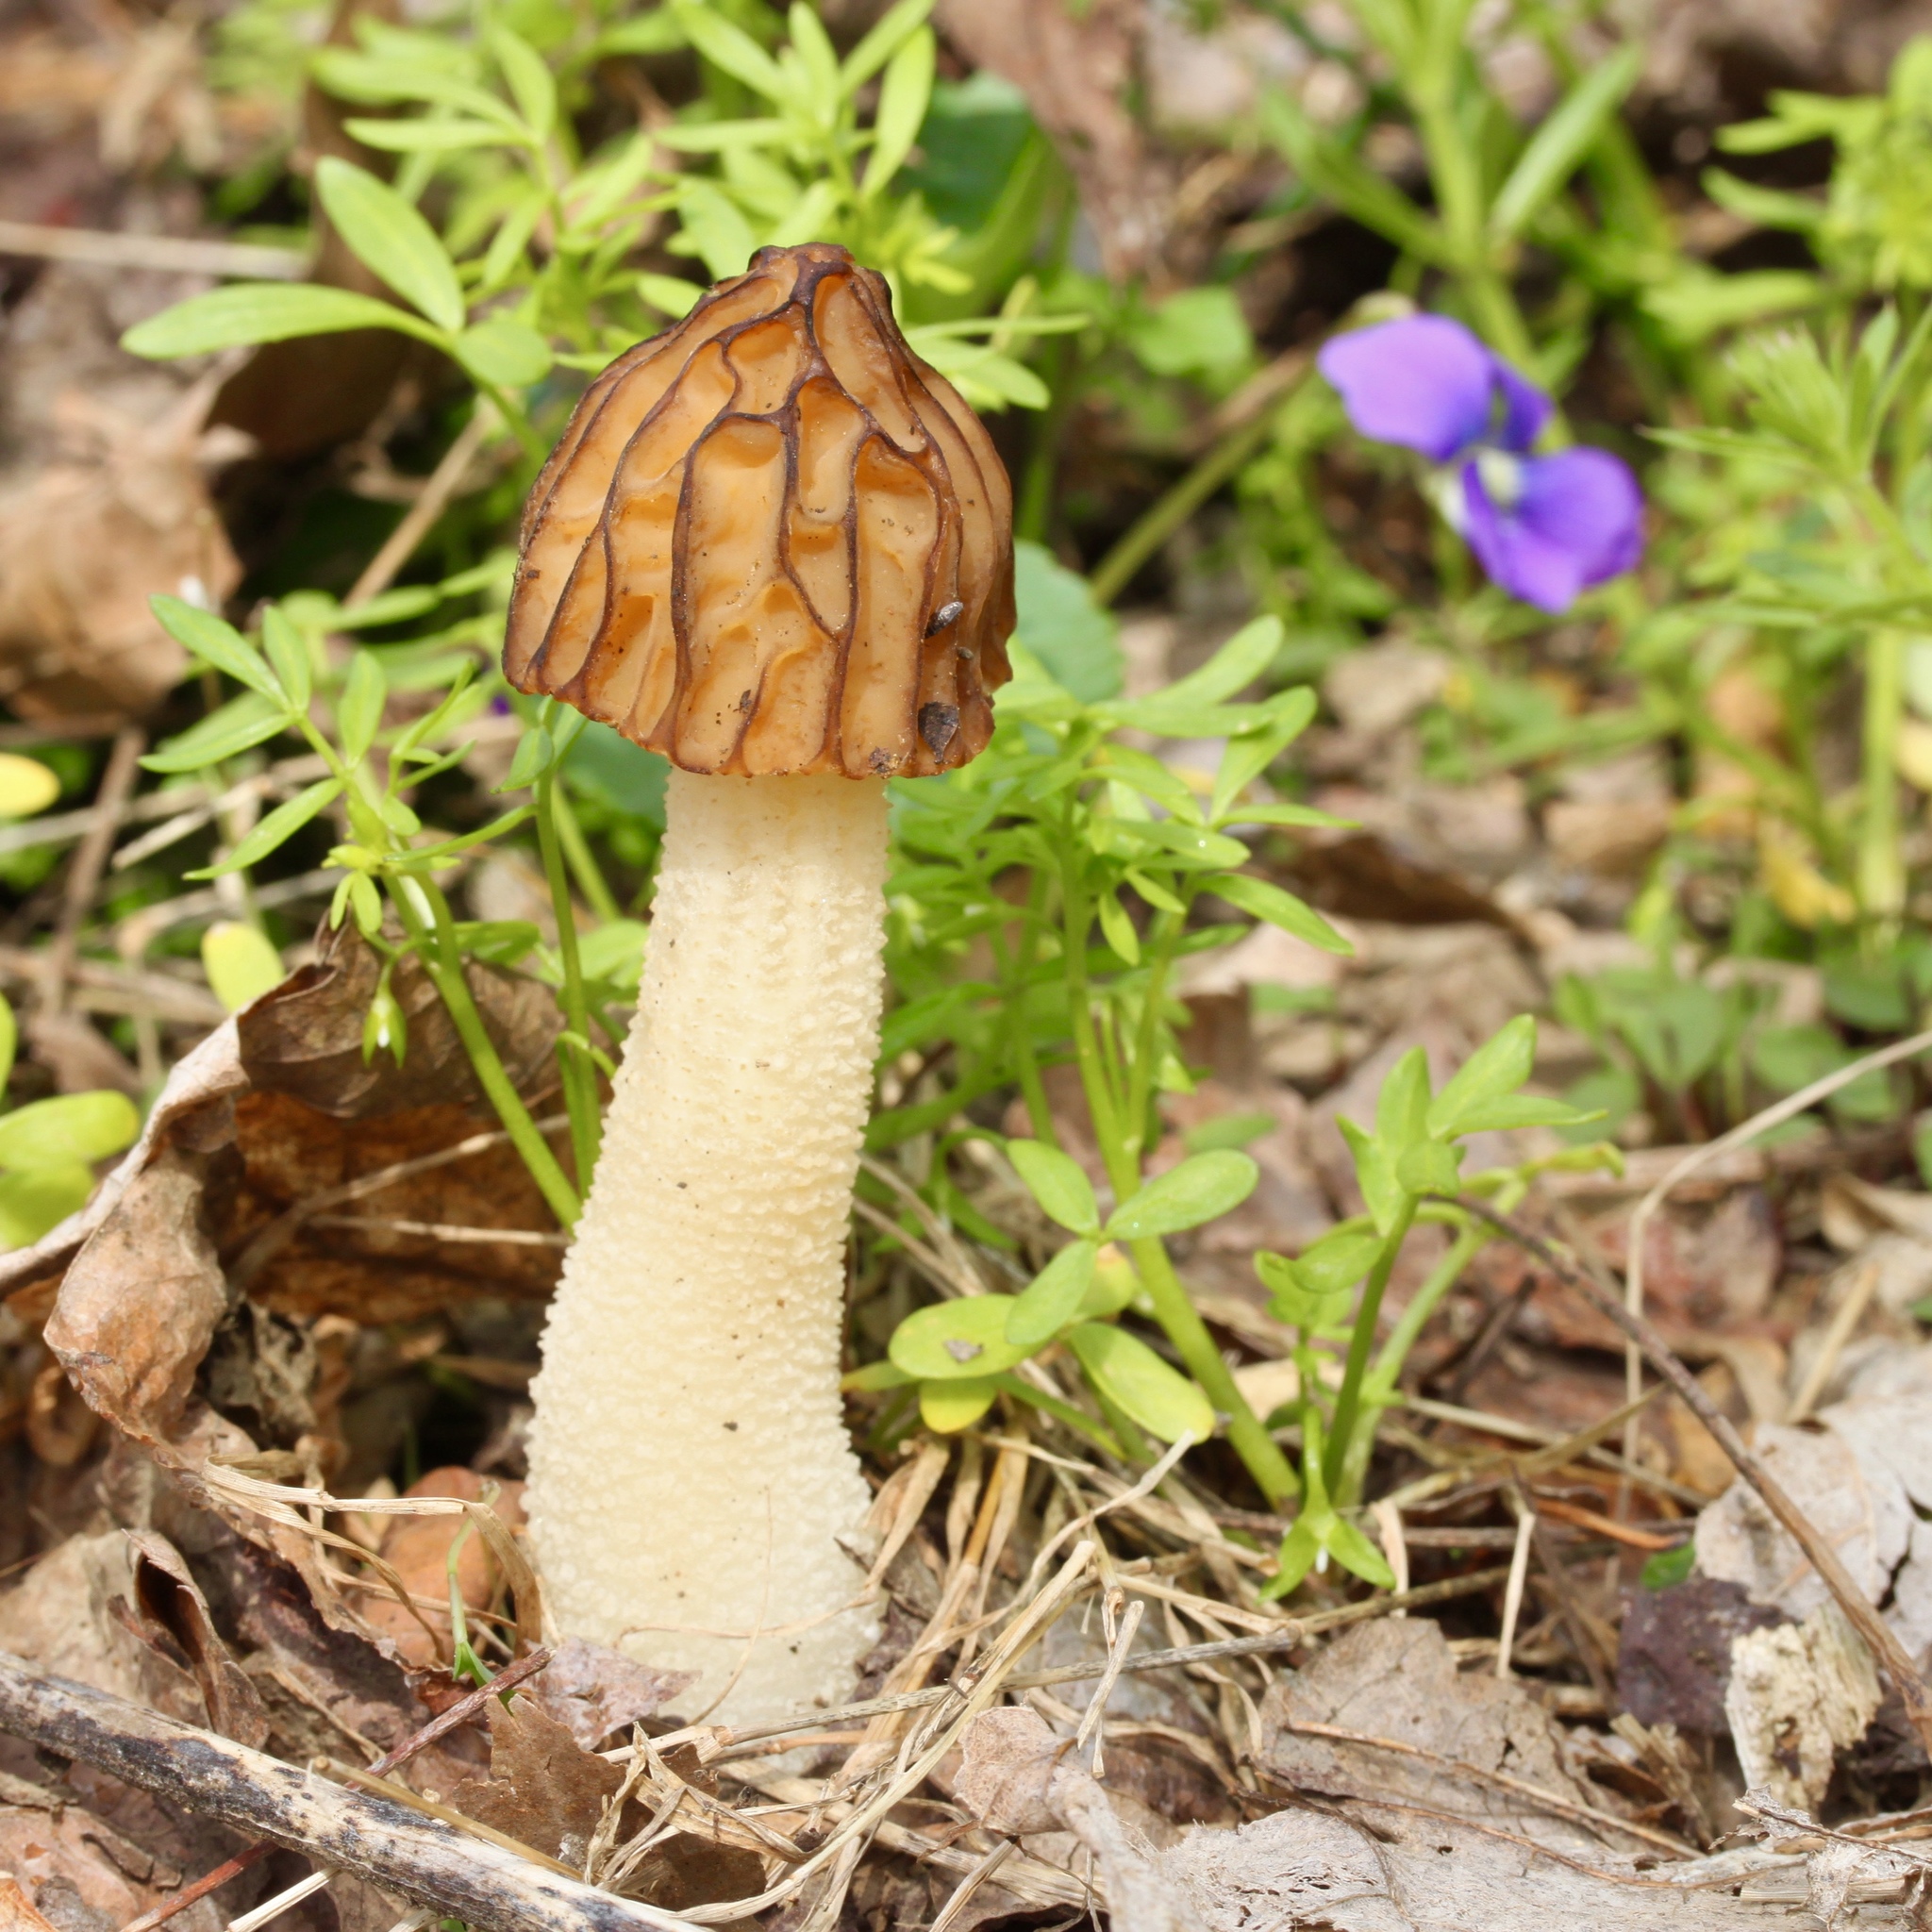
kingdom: Fungi
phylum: Ascomycota
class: Pezizomycetes
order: Pezizales
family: Morchellaceae
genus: Morchella
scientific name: Morchella punctipes
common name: Half-free morel
